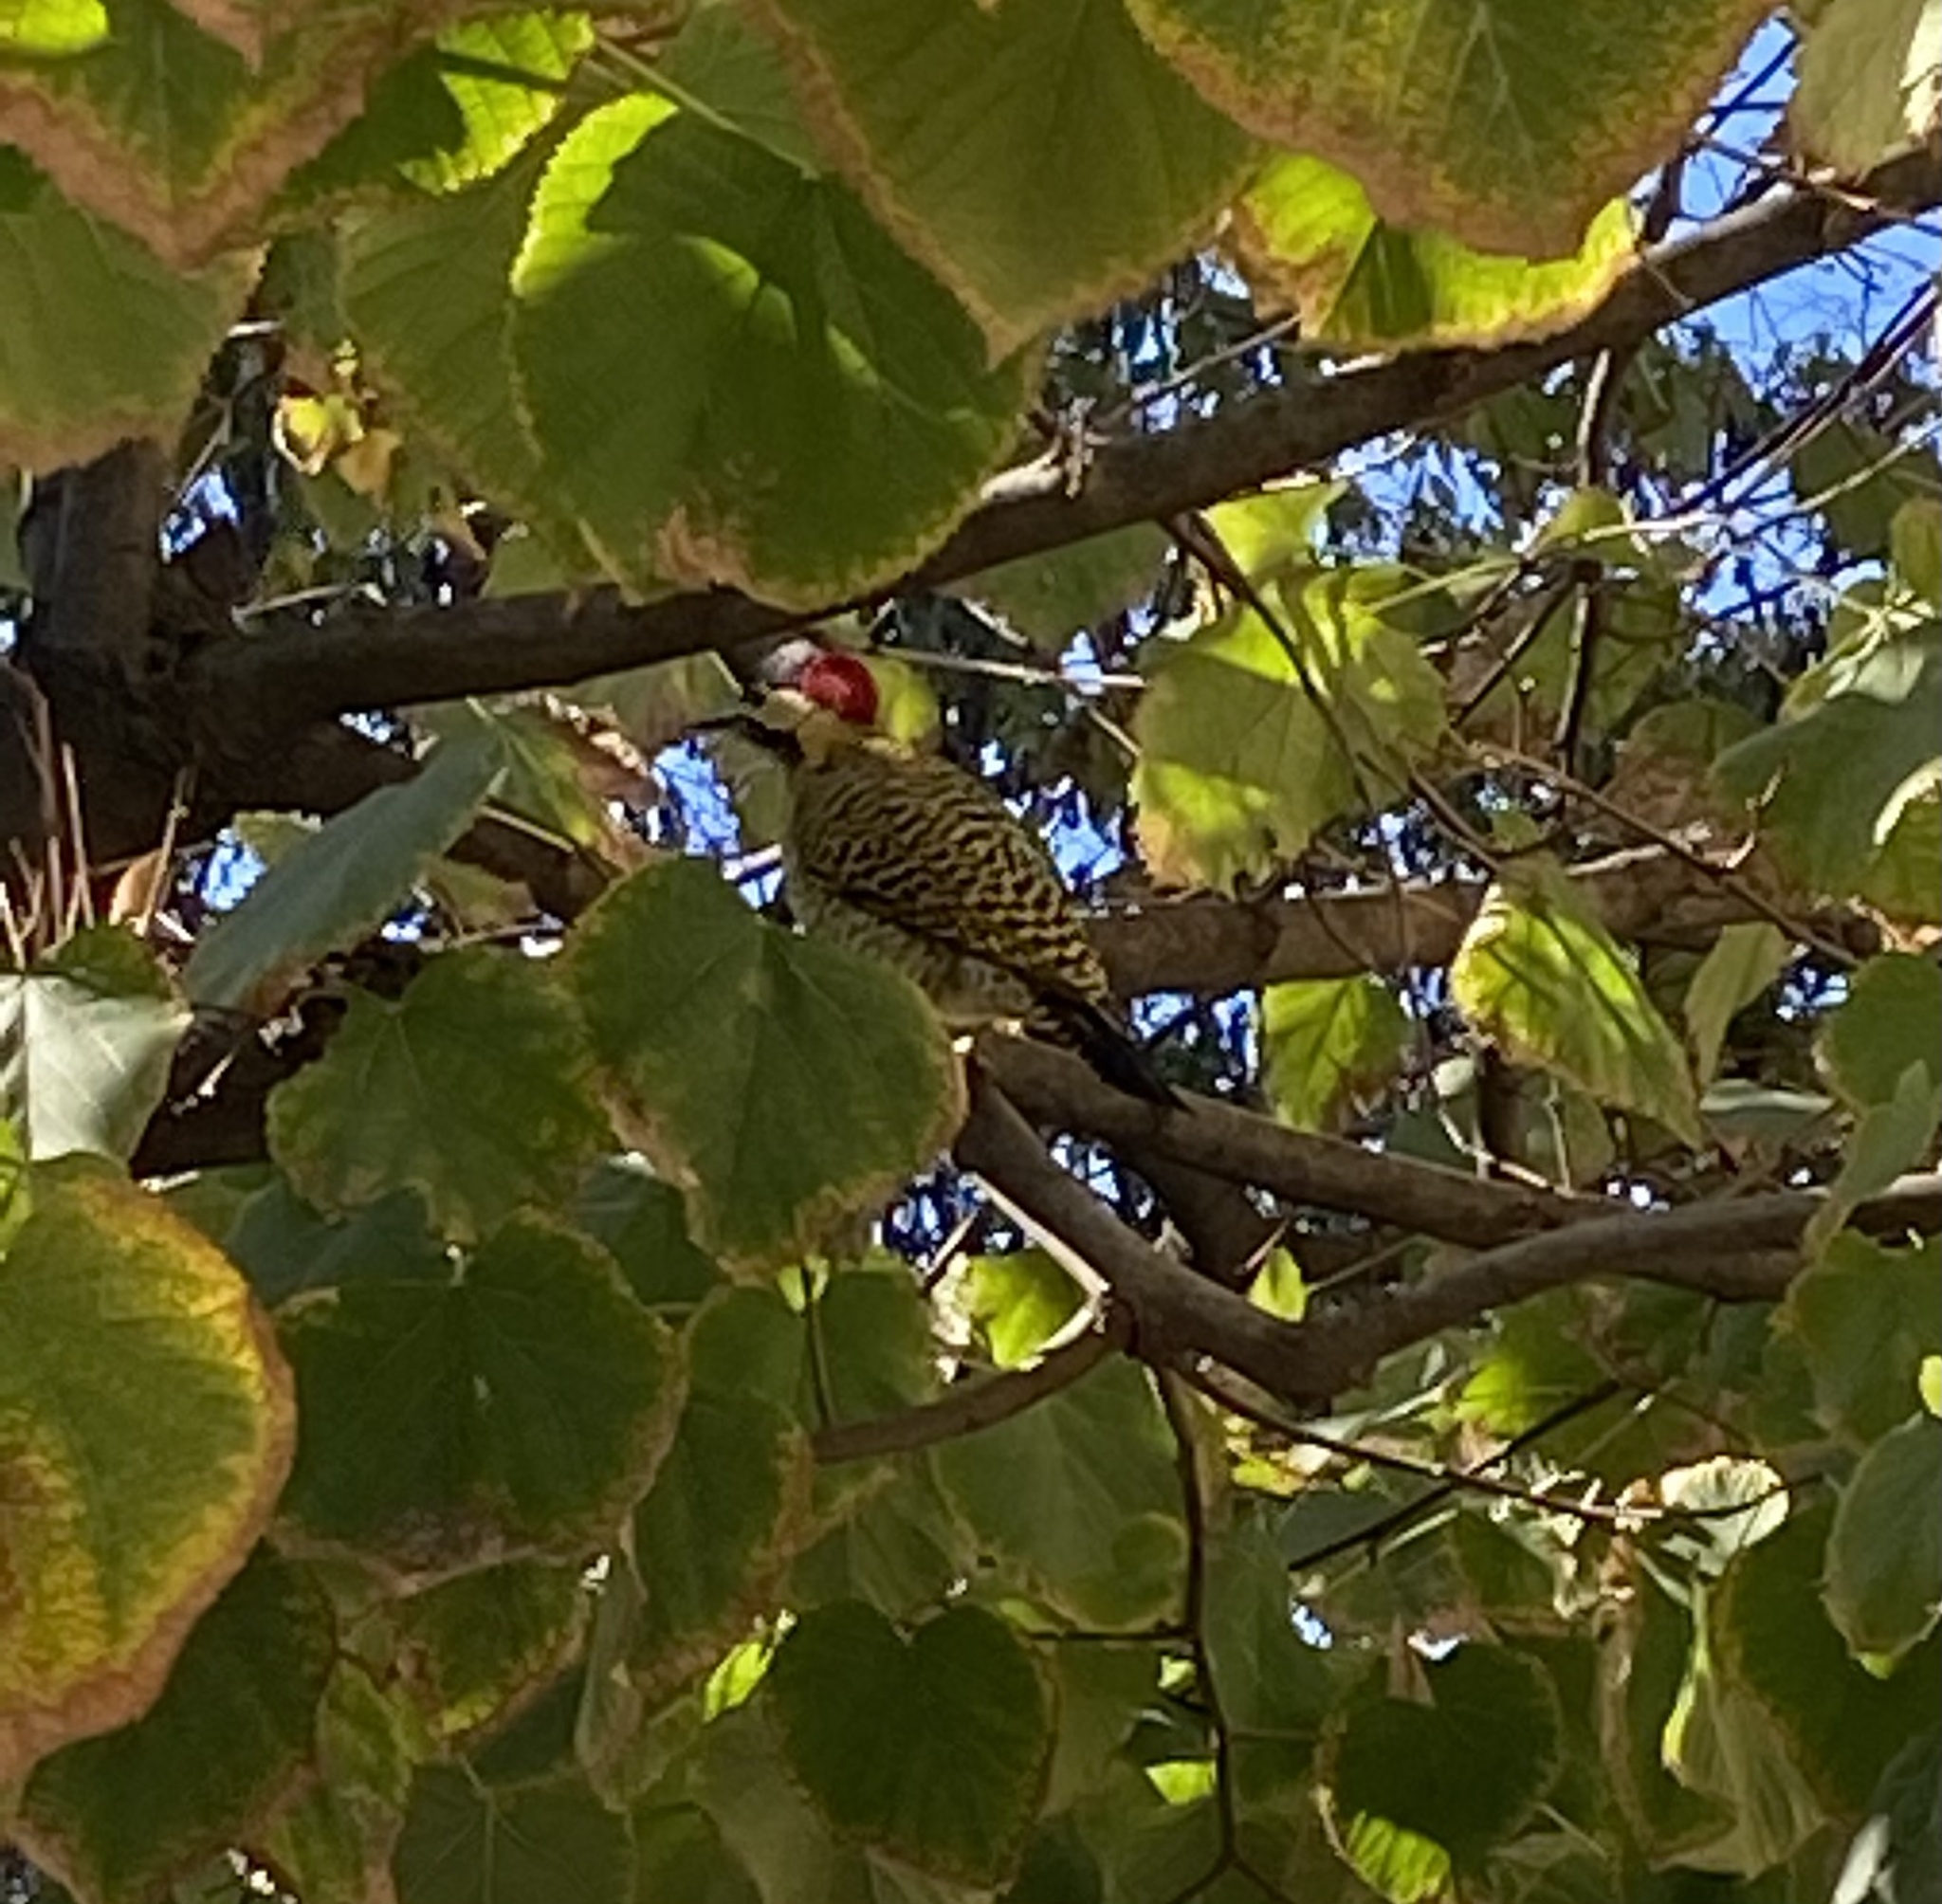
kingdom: Animalia
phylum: Chordata
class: Aves
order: Piciformes
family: Picidae
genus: Colaptes
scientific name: Colaptes melanochloros
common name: Green-barred woodpecker
